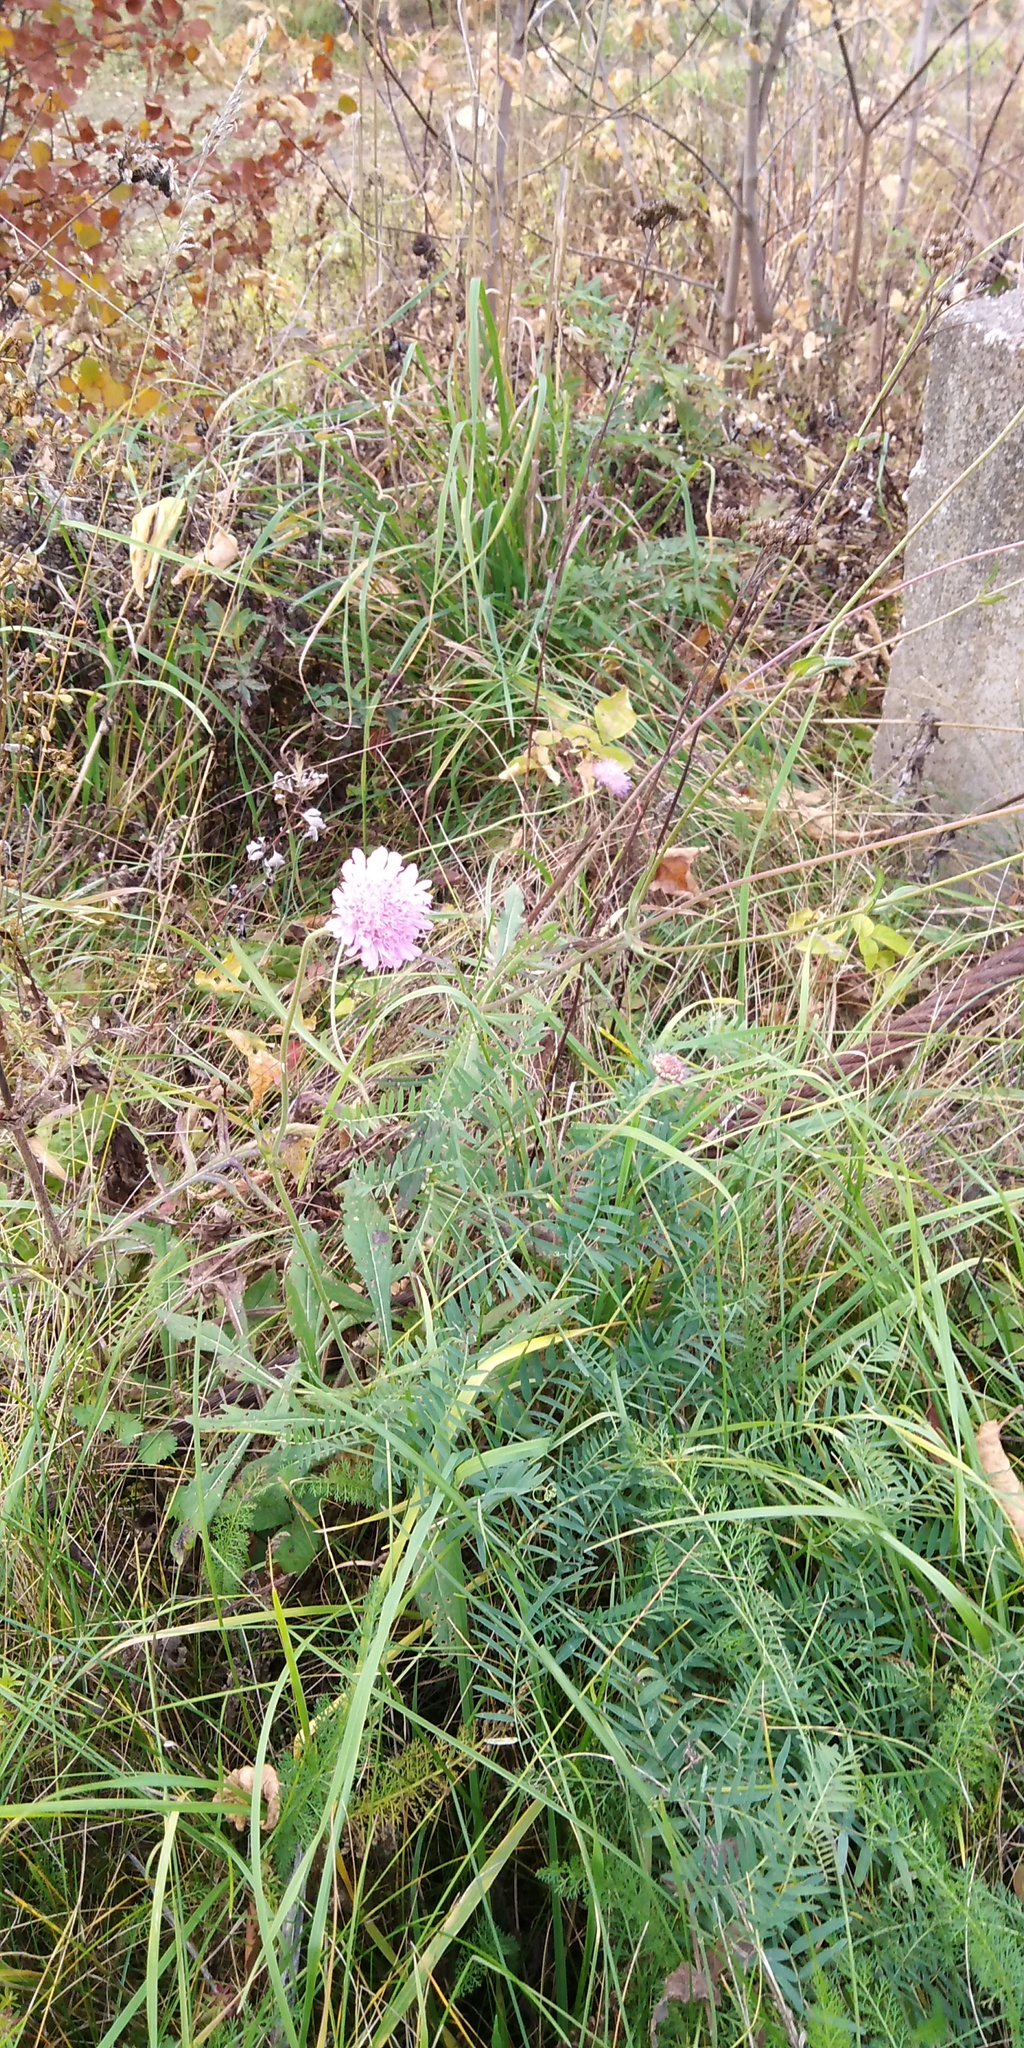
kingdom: Plantae
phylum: Tracheophyta
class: Magnoliopsida
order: Dipsacales
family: Caprifoliaceae
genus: Knautia
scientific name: Knautia arvensis
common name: Field scabiosa
